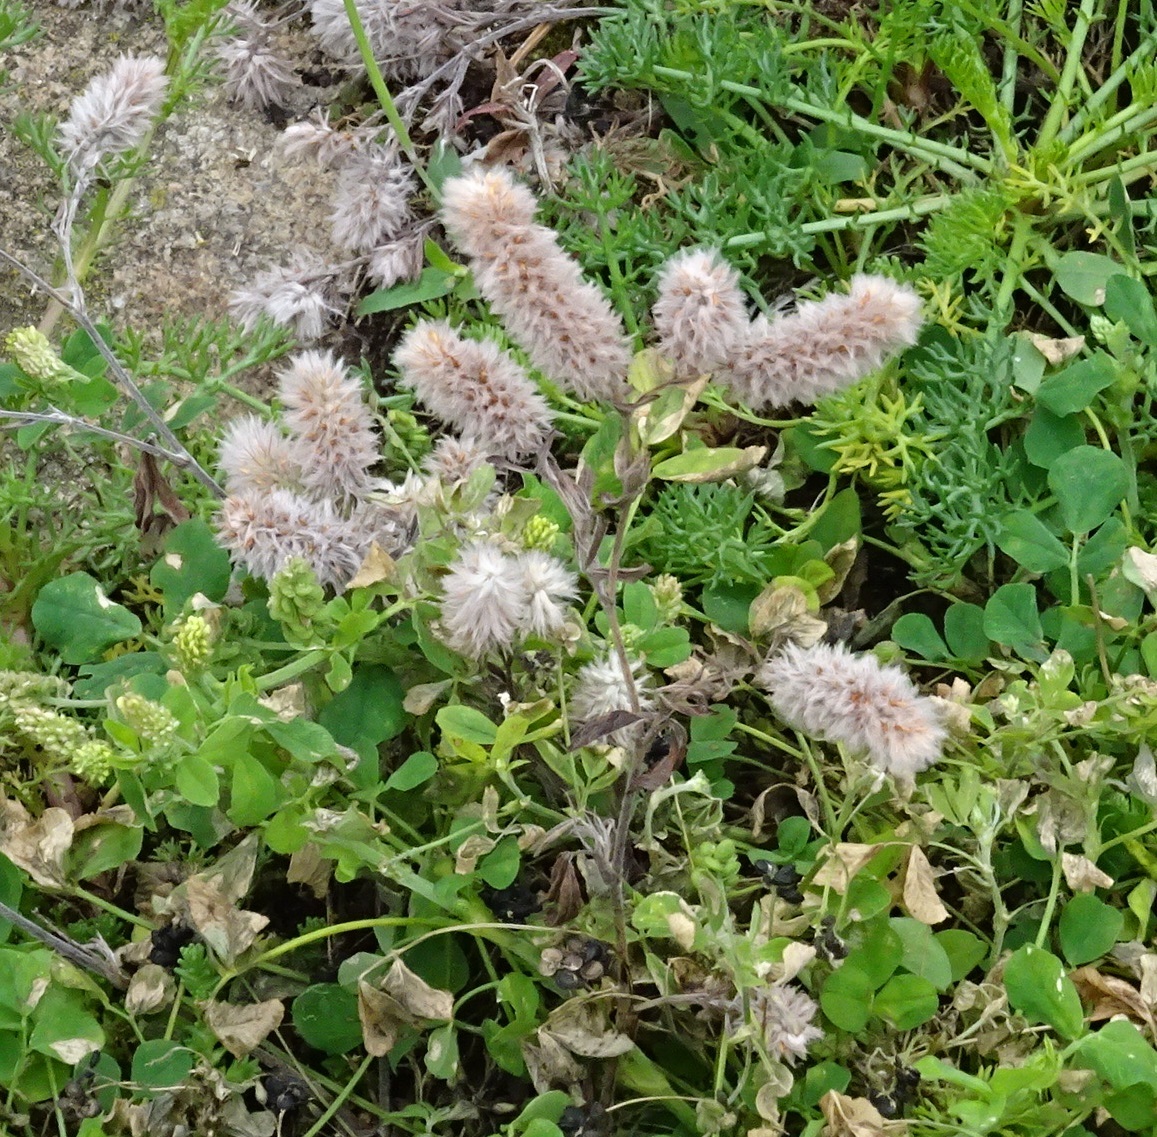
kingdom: Plantae
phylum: Tracheophyta
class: Magnoliopsida
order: Fabales
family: Fabaceae
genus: Trifolium
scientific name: Trifolium arvense
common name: Hare's-foot clover
